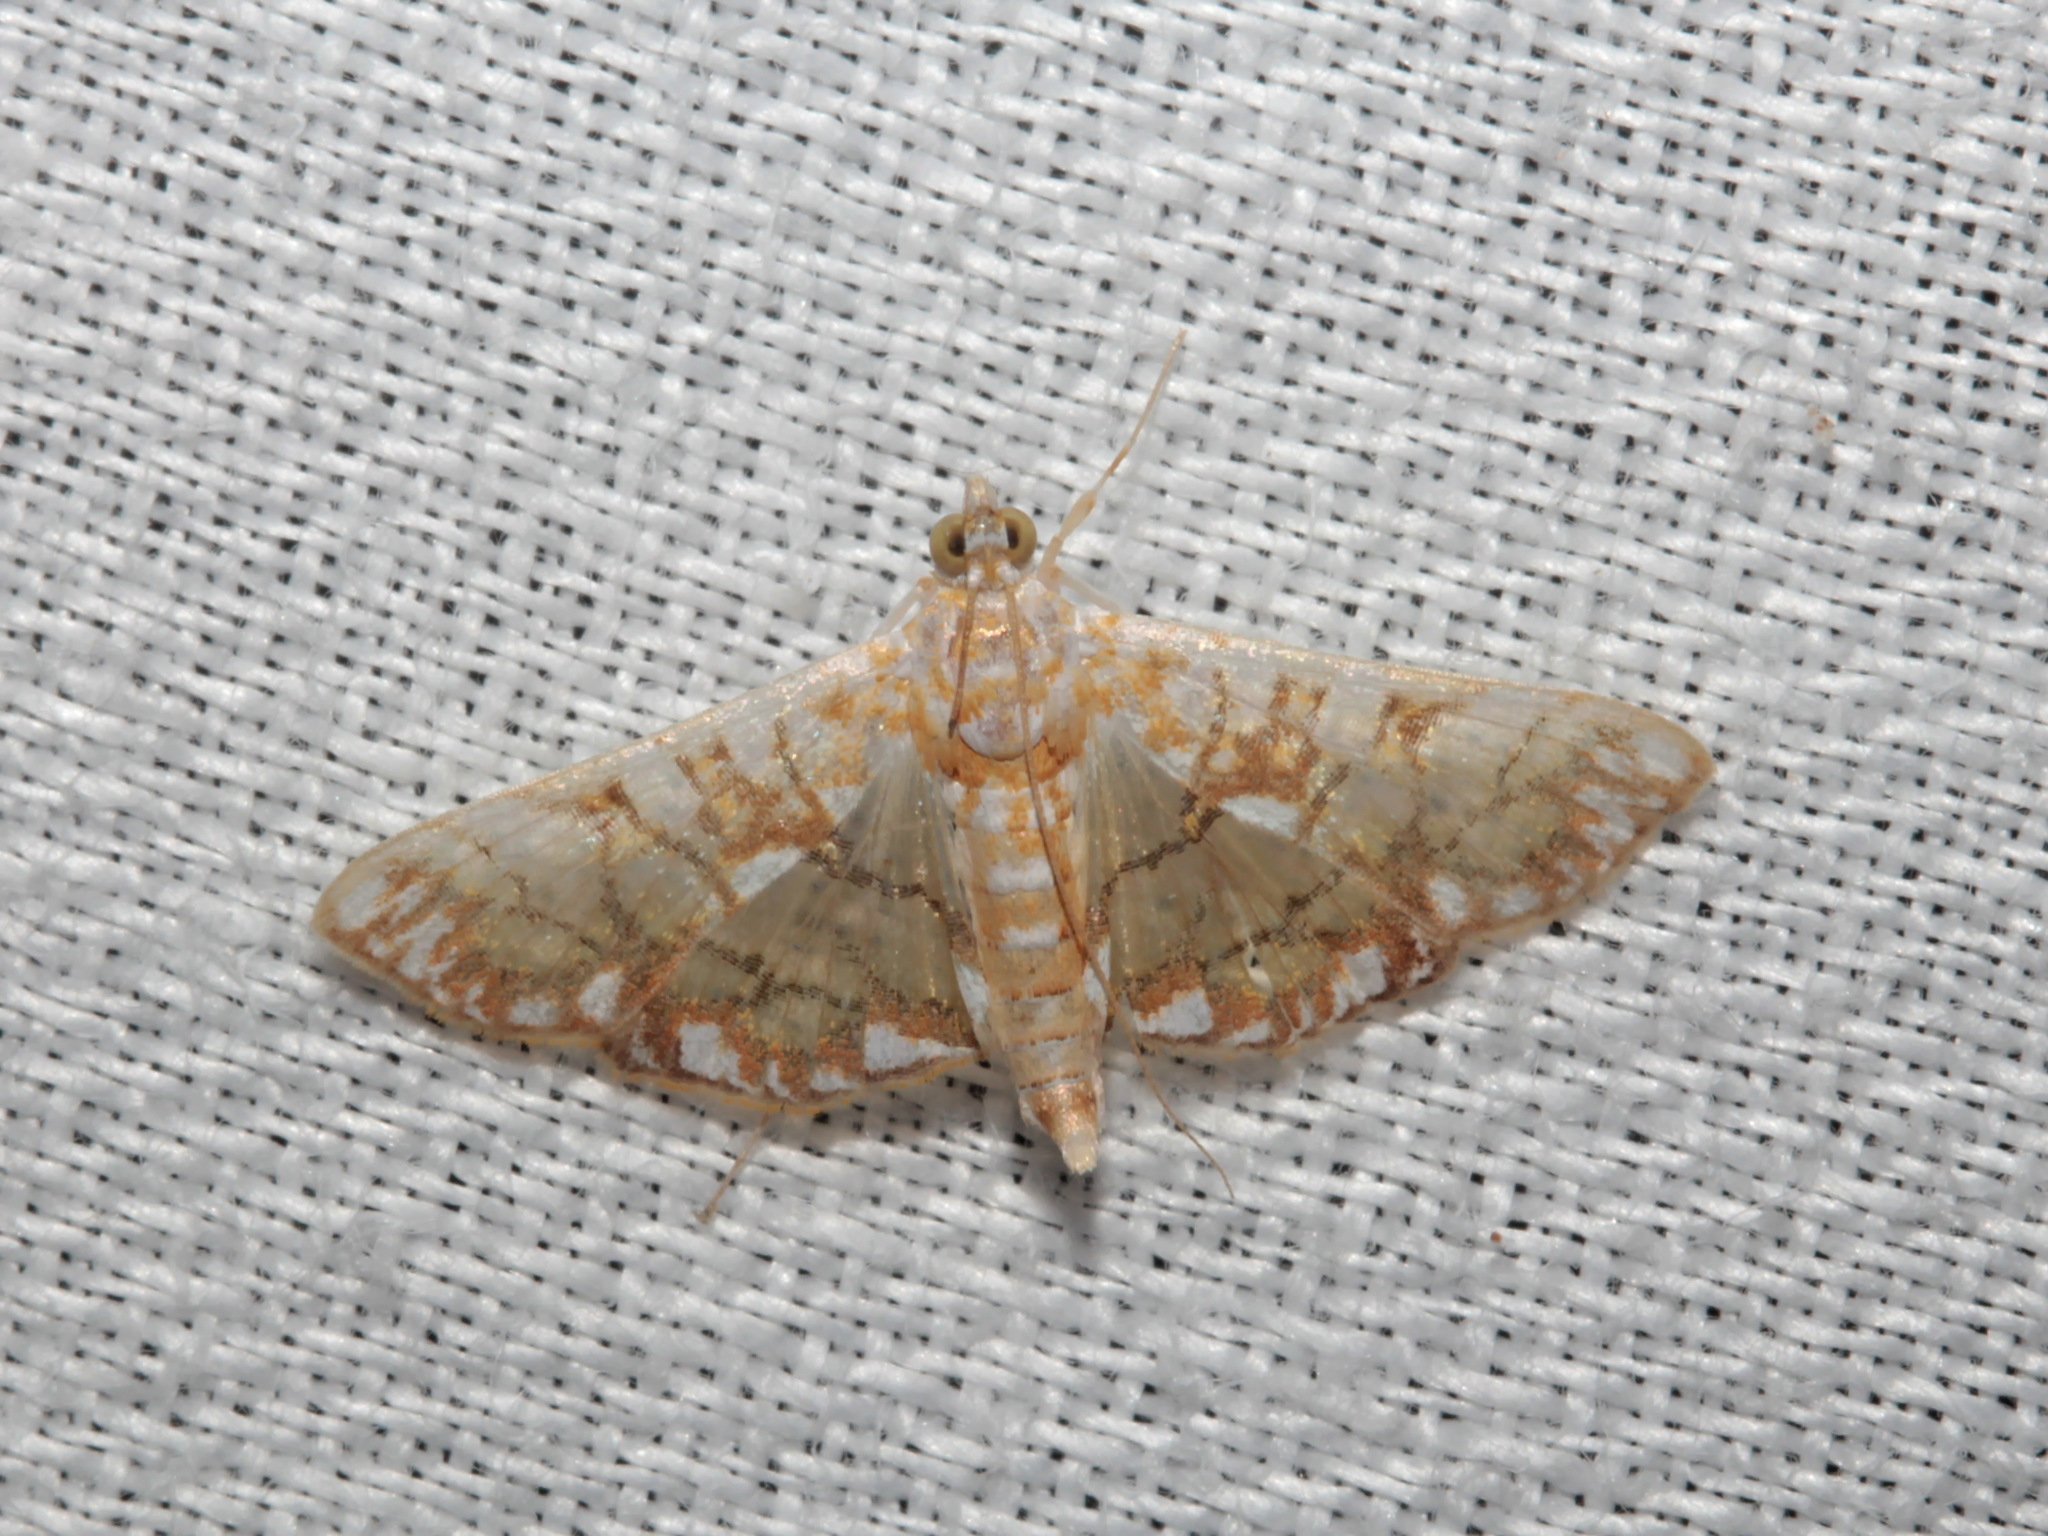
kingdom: Animalia
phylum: Arthropoda
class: Insecta
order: Lepidoptera
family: Crambidae
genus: Synclera
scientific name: Synclera traducalis
